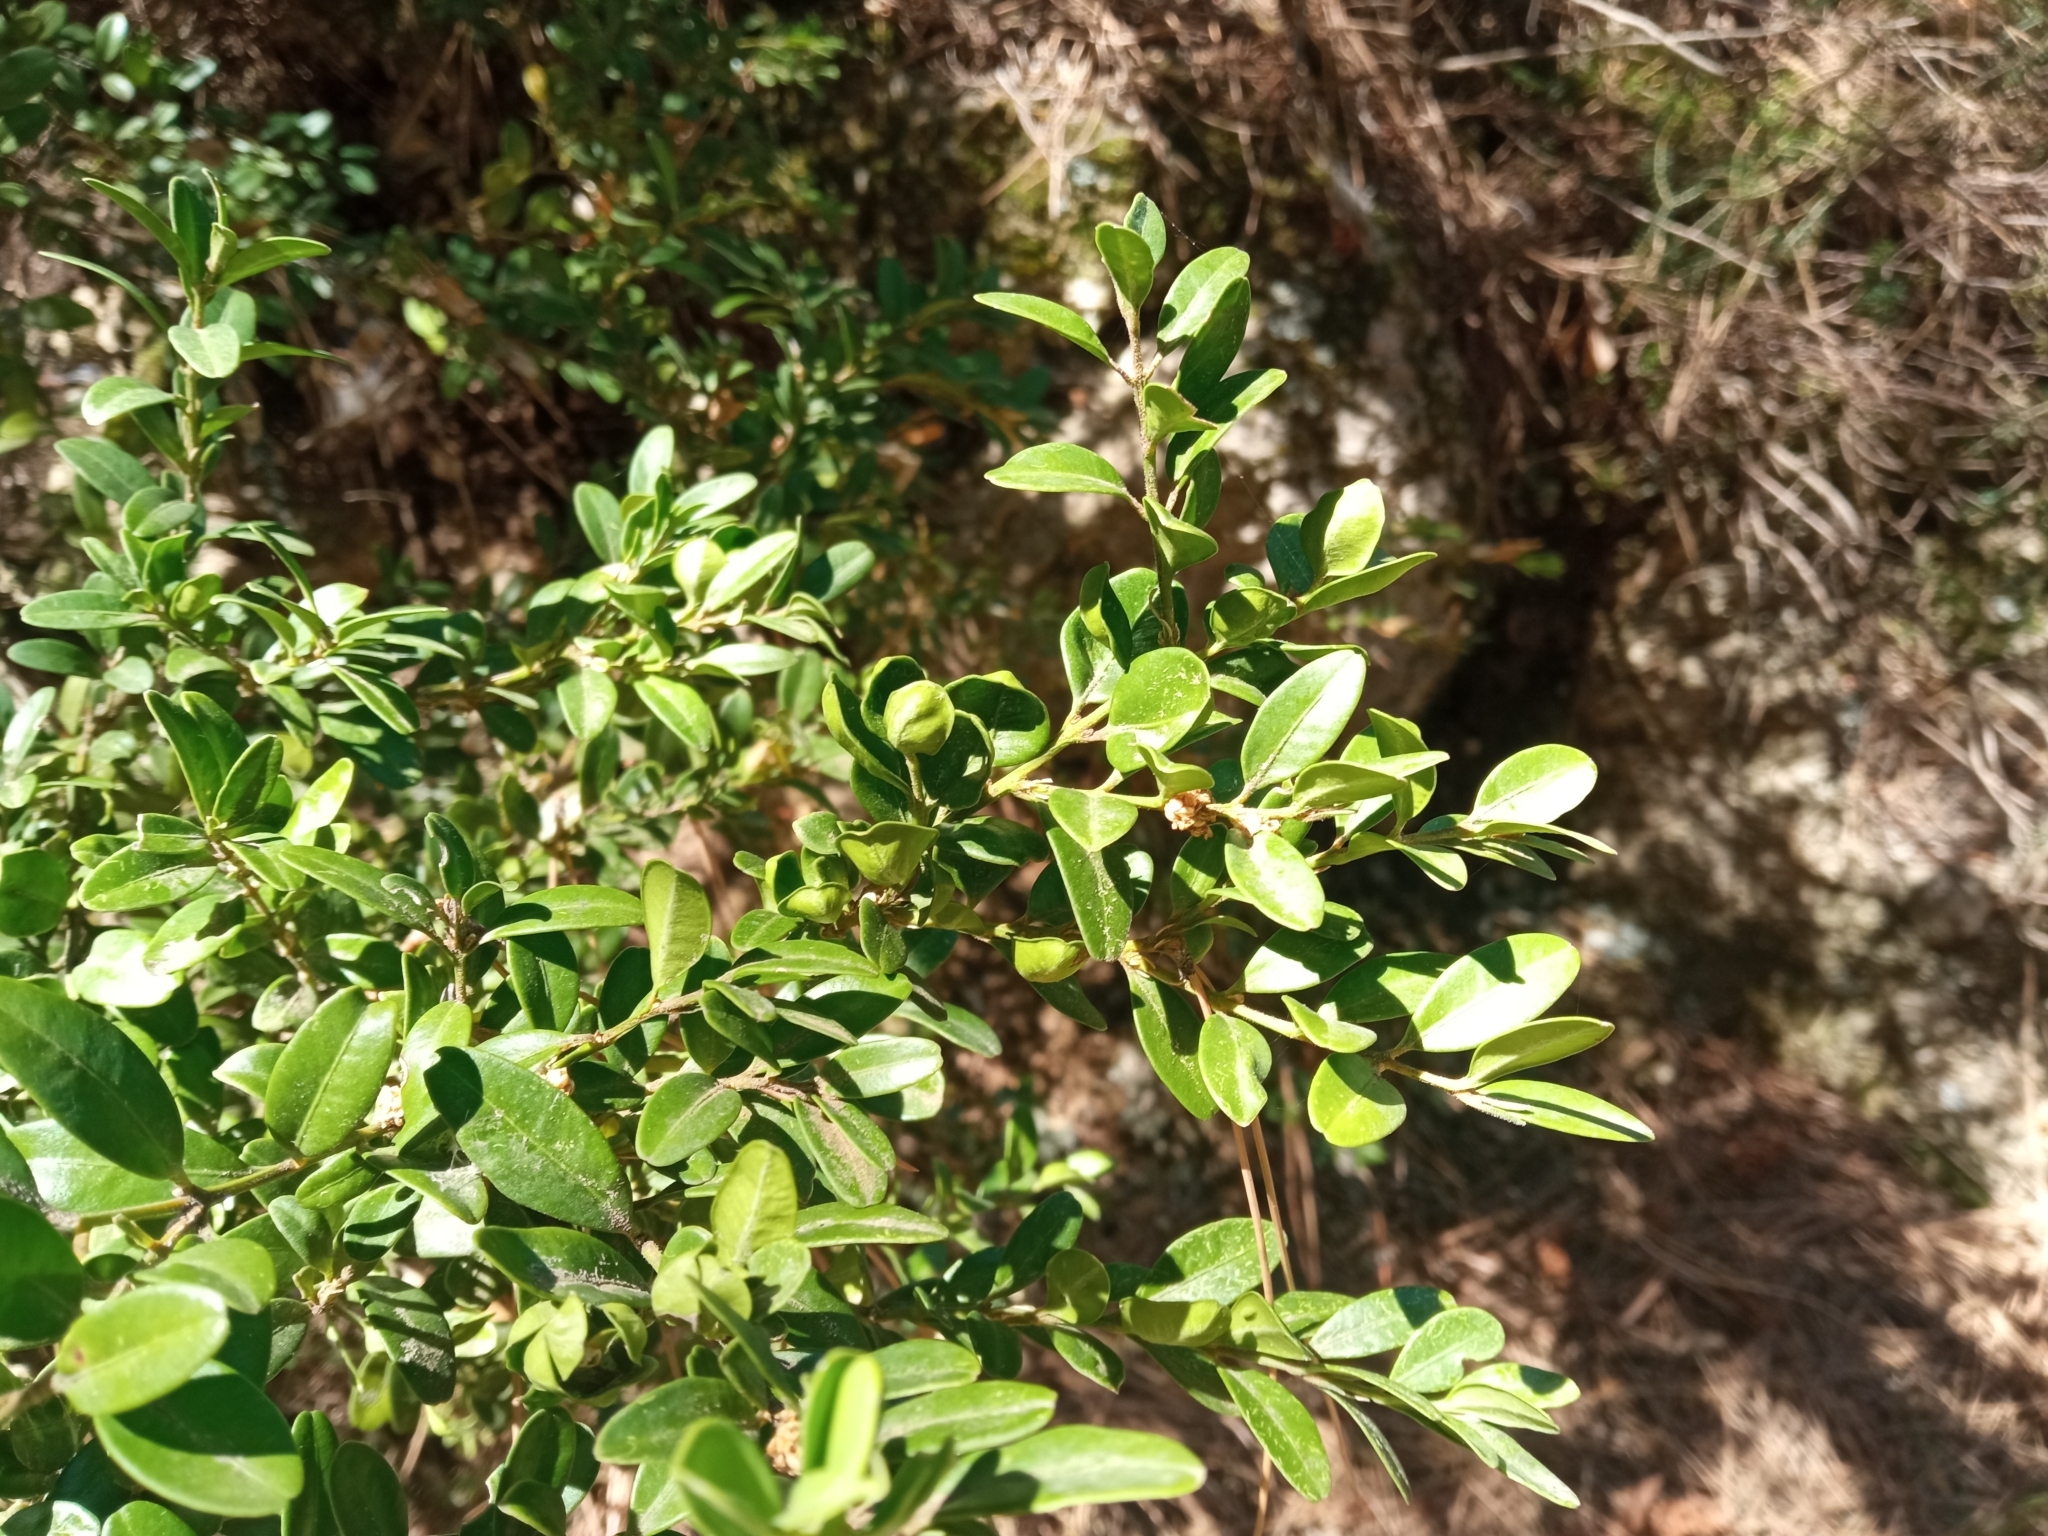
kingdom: Plantae
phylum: Tracheophyta
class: Magnoliopsida
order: Buxales
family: Buxaceae
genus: Buxus
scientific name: Buxus sempervirens
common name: Box
